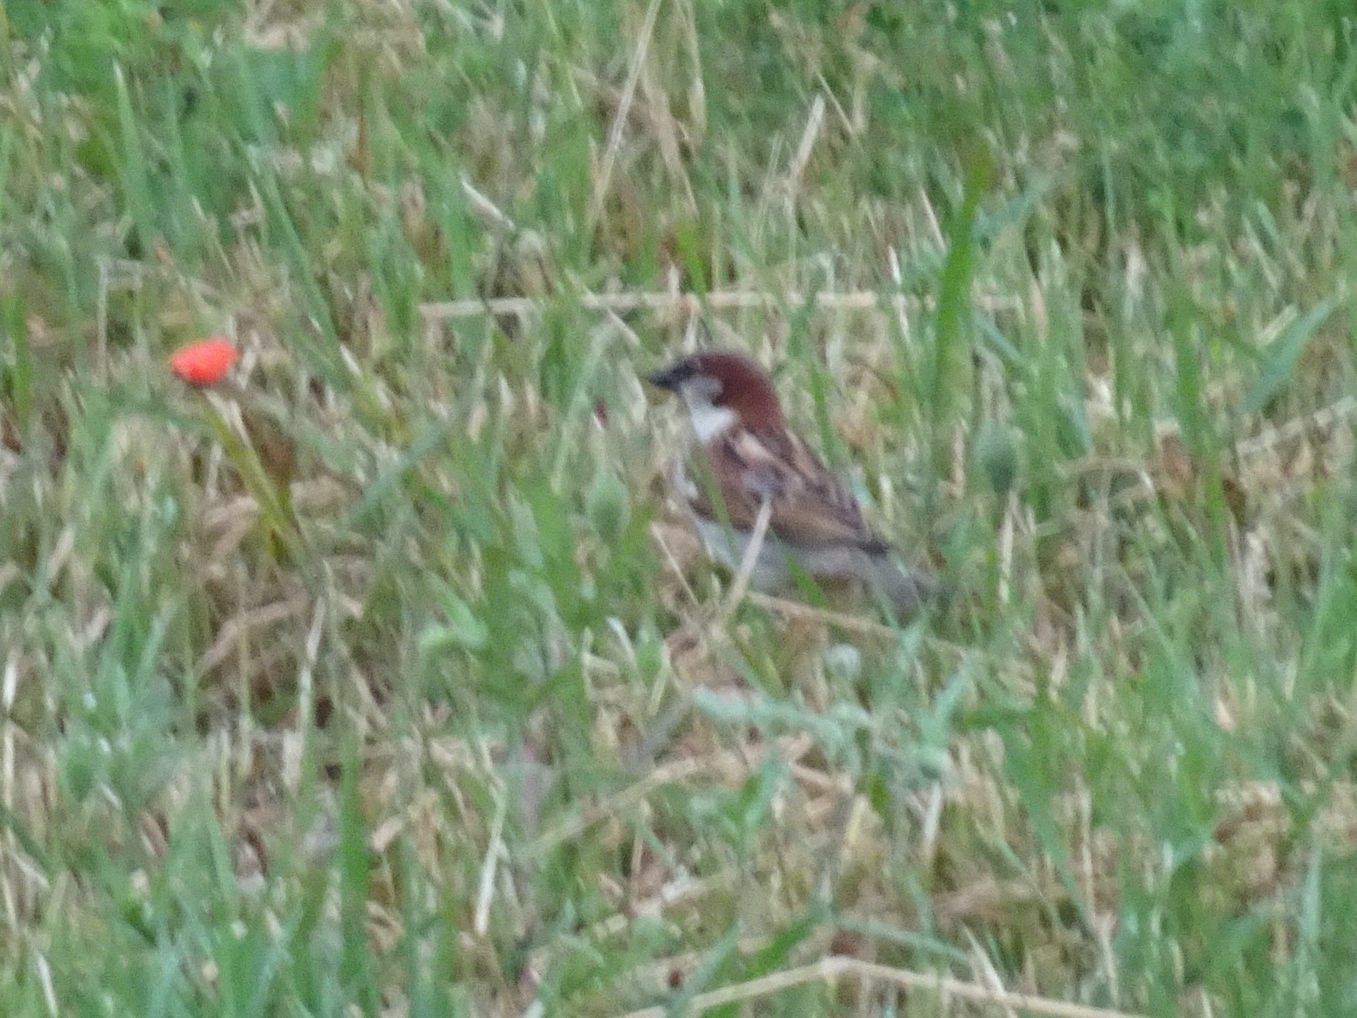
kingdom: Animalia
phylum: Chordata
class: Aves
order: Passeriformes
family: Passeridae
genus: Passer
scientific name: Passer domesticus
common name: House sparrow
